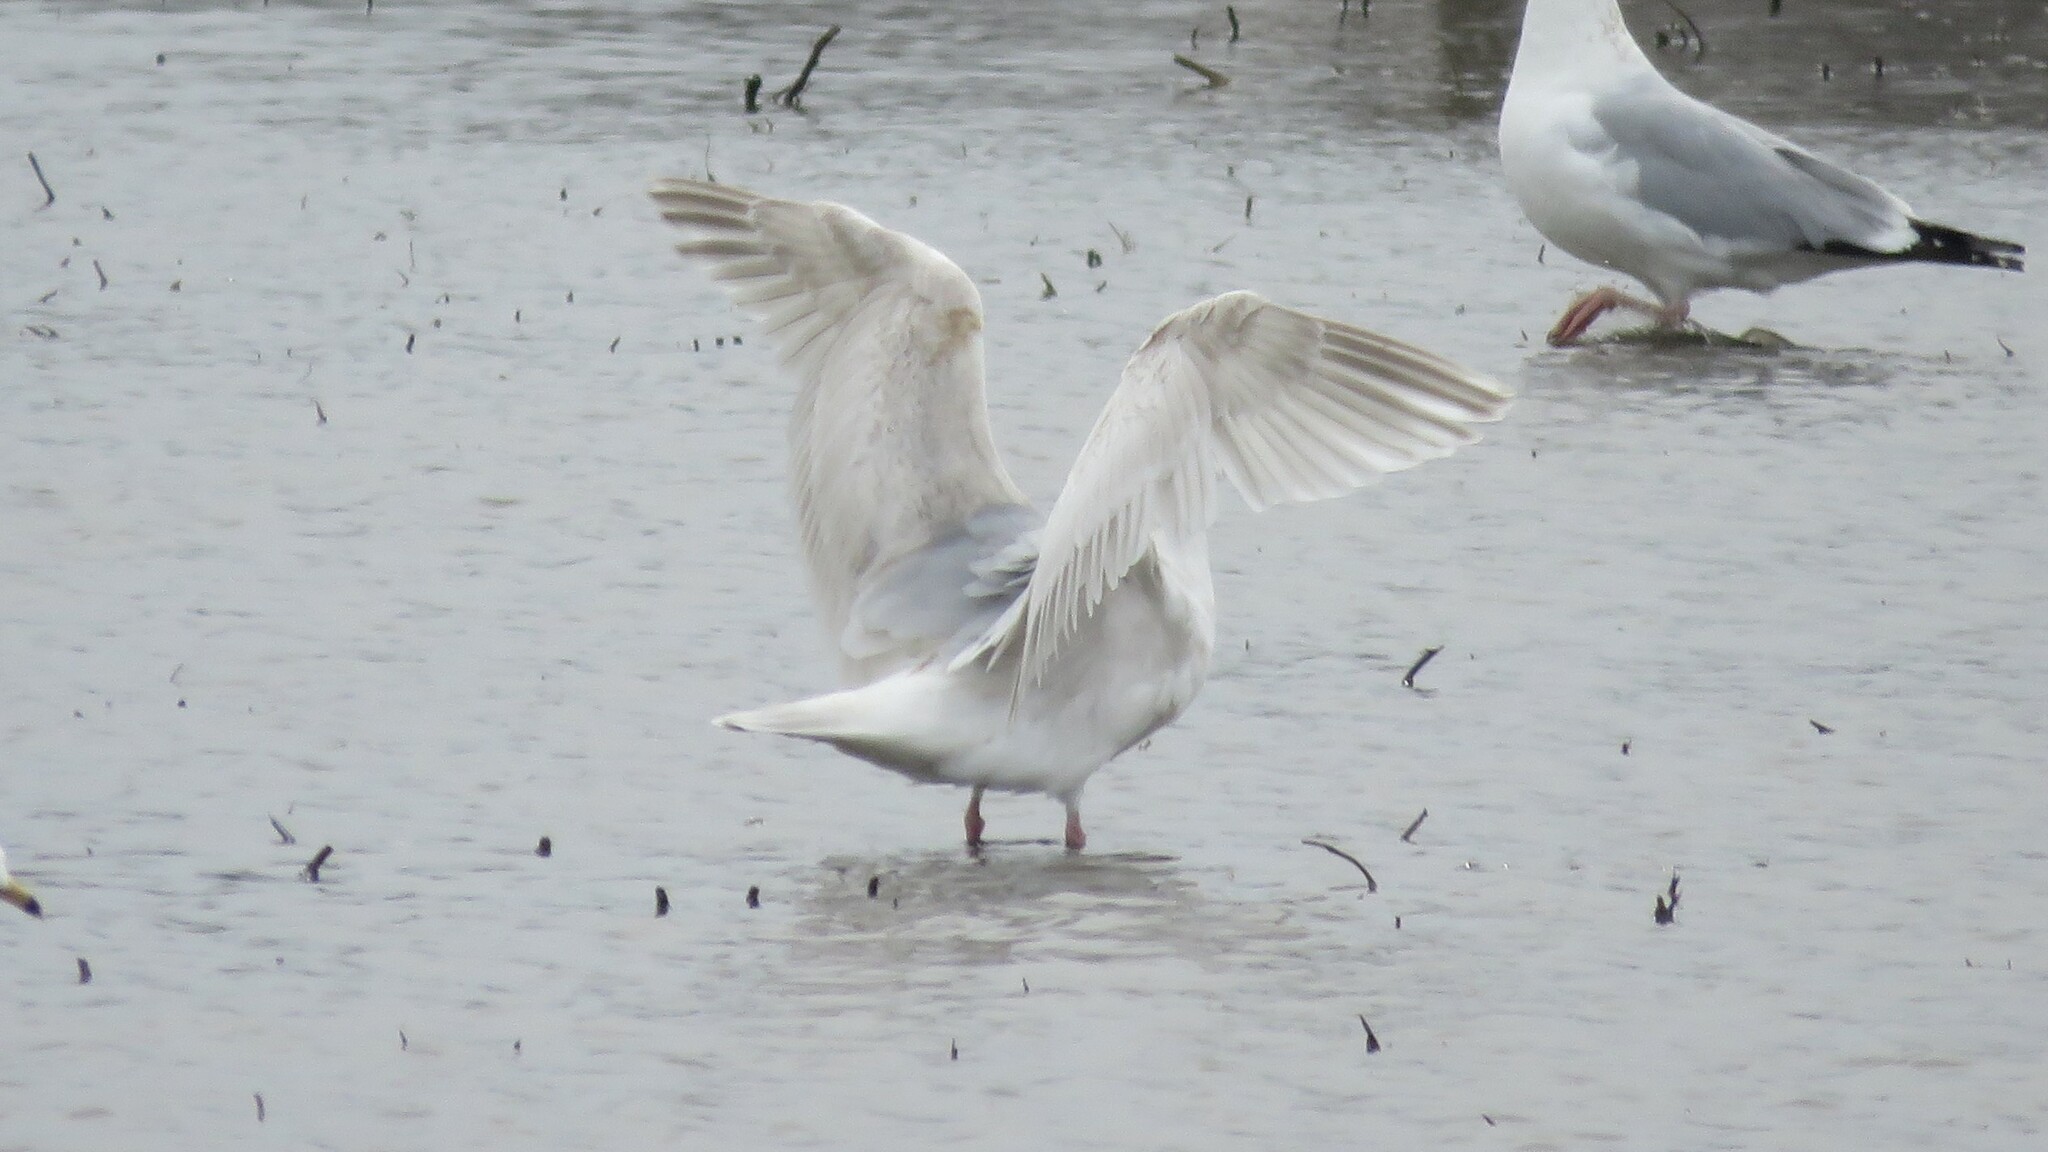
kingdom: Animalia
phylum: Chordata
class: Aves
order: Charadriiformes
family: Laridae
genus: Larus
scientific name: Larus hyperboreus
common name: Glaucous gull
